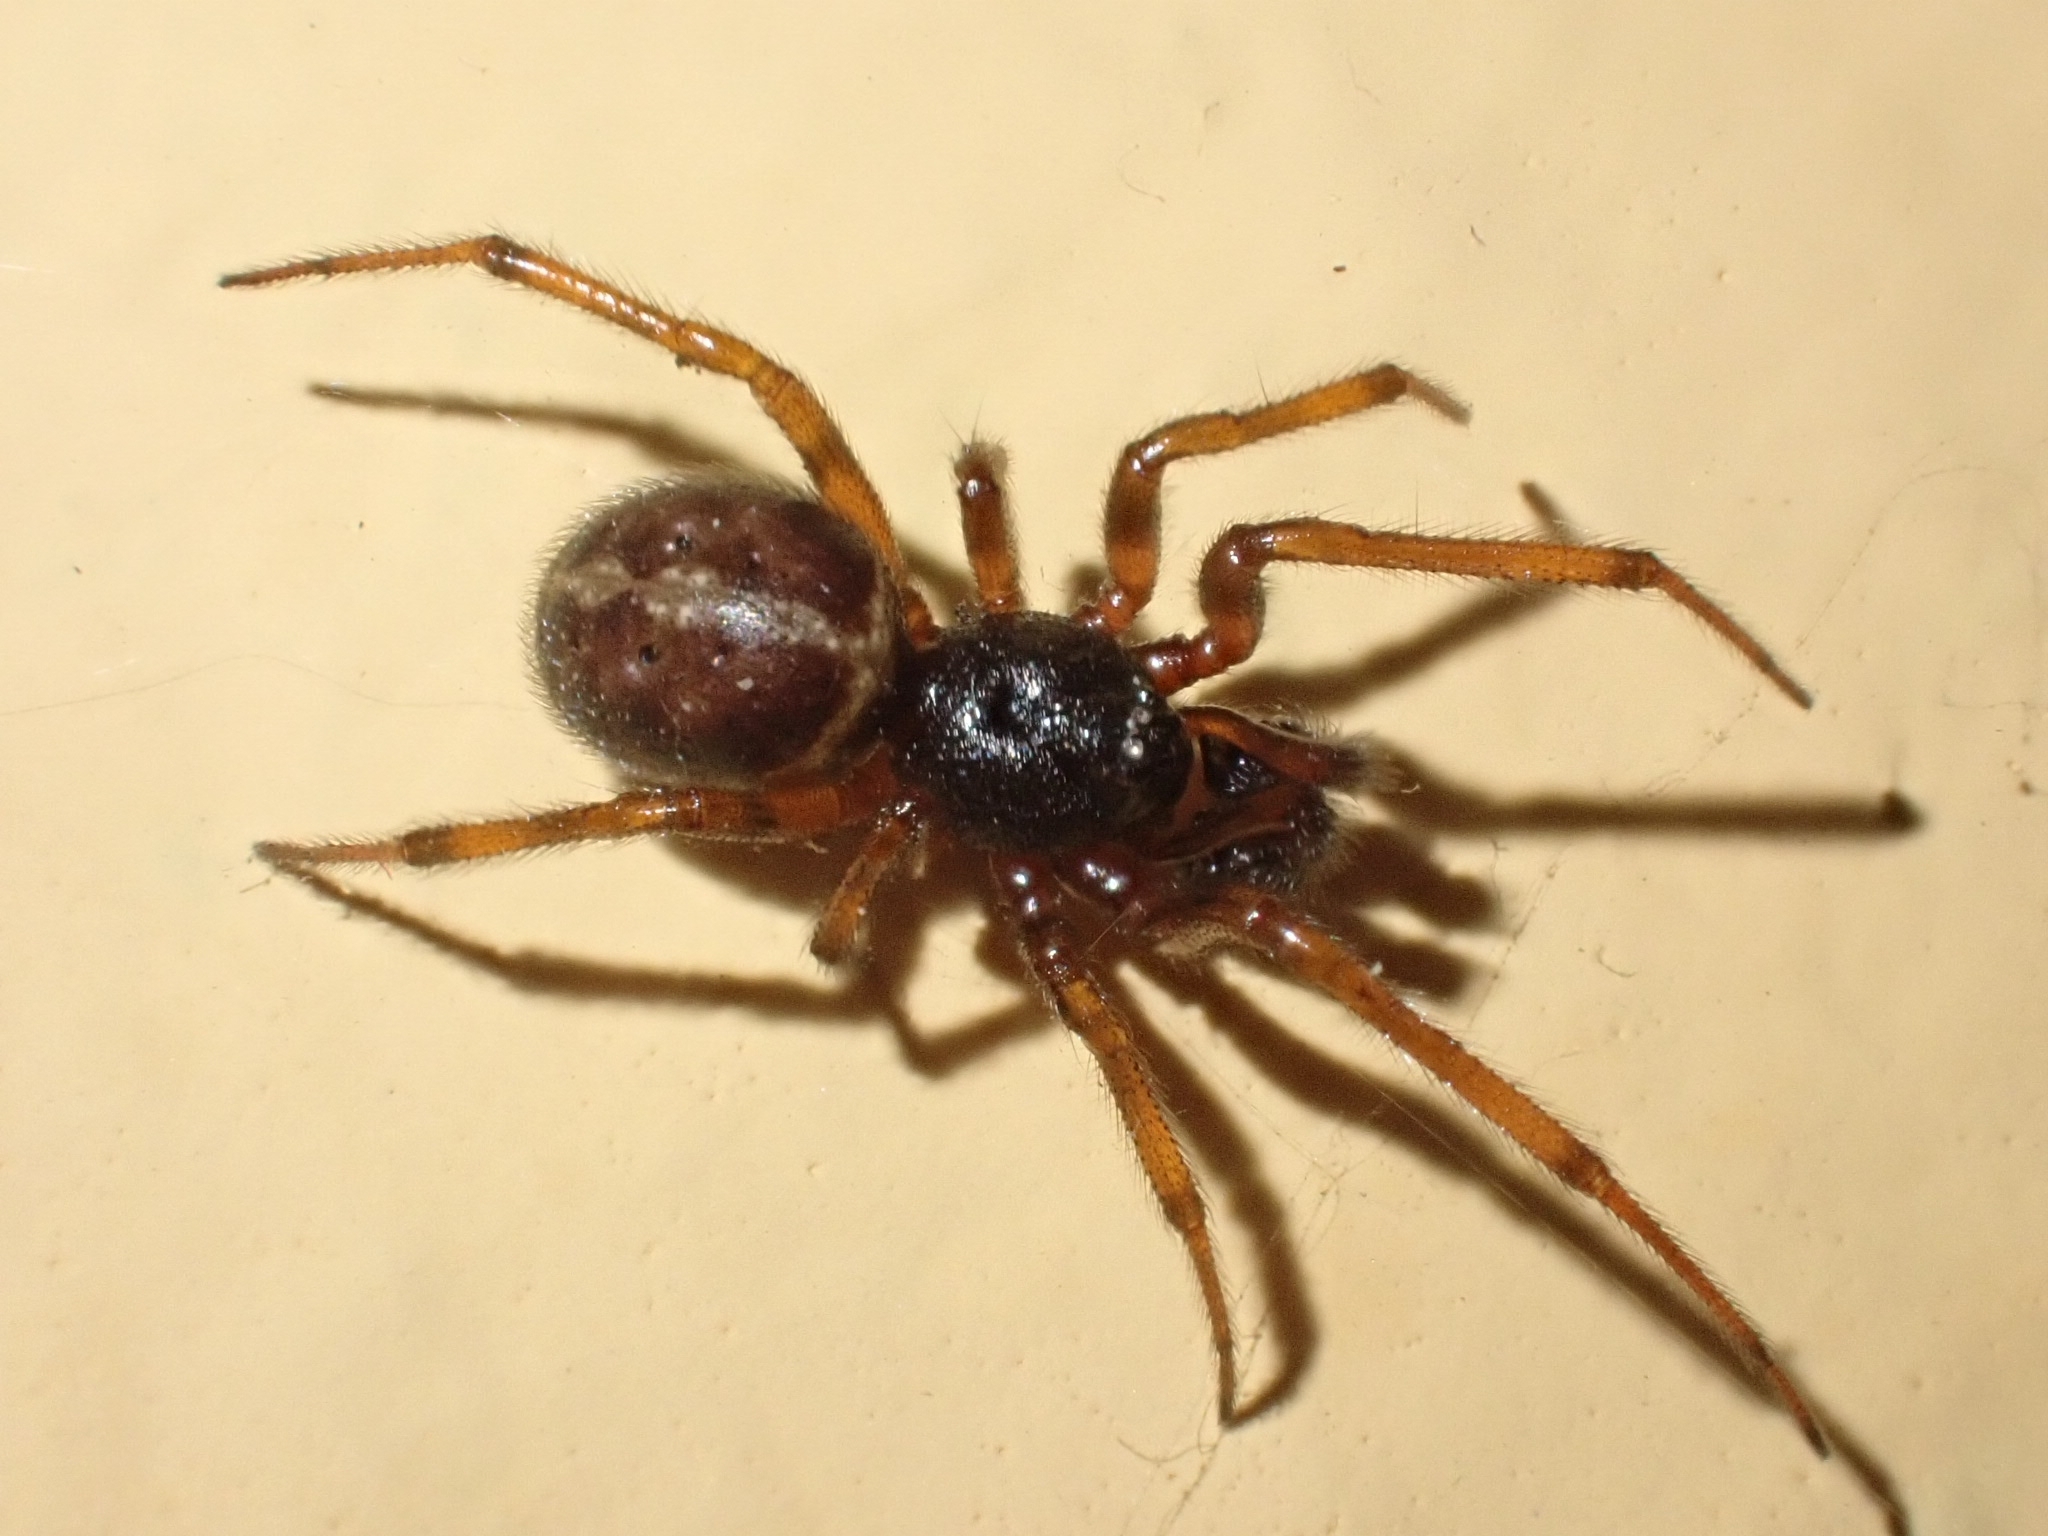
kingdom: Animalia
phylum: Arthropoda
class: Arachnida
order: Araneae
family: Theridiidae
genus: Steatoda
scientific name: Steatoda bipunctata
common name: False widow
